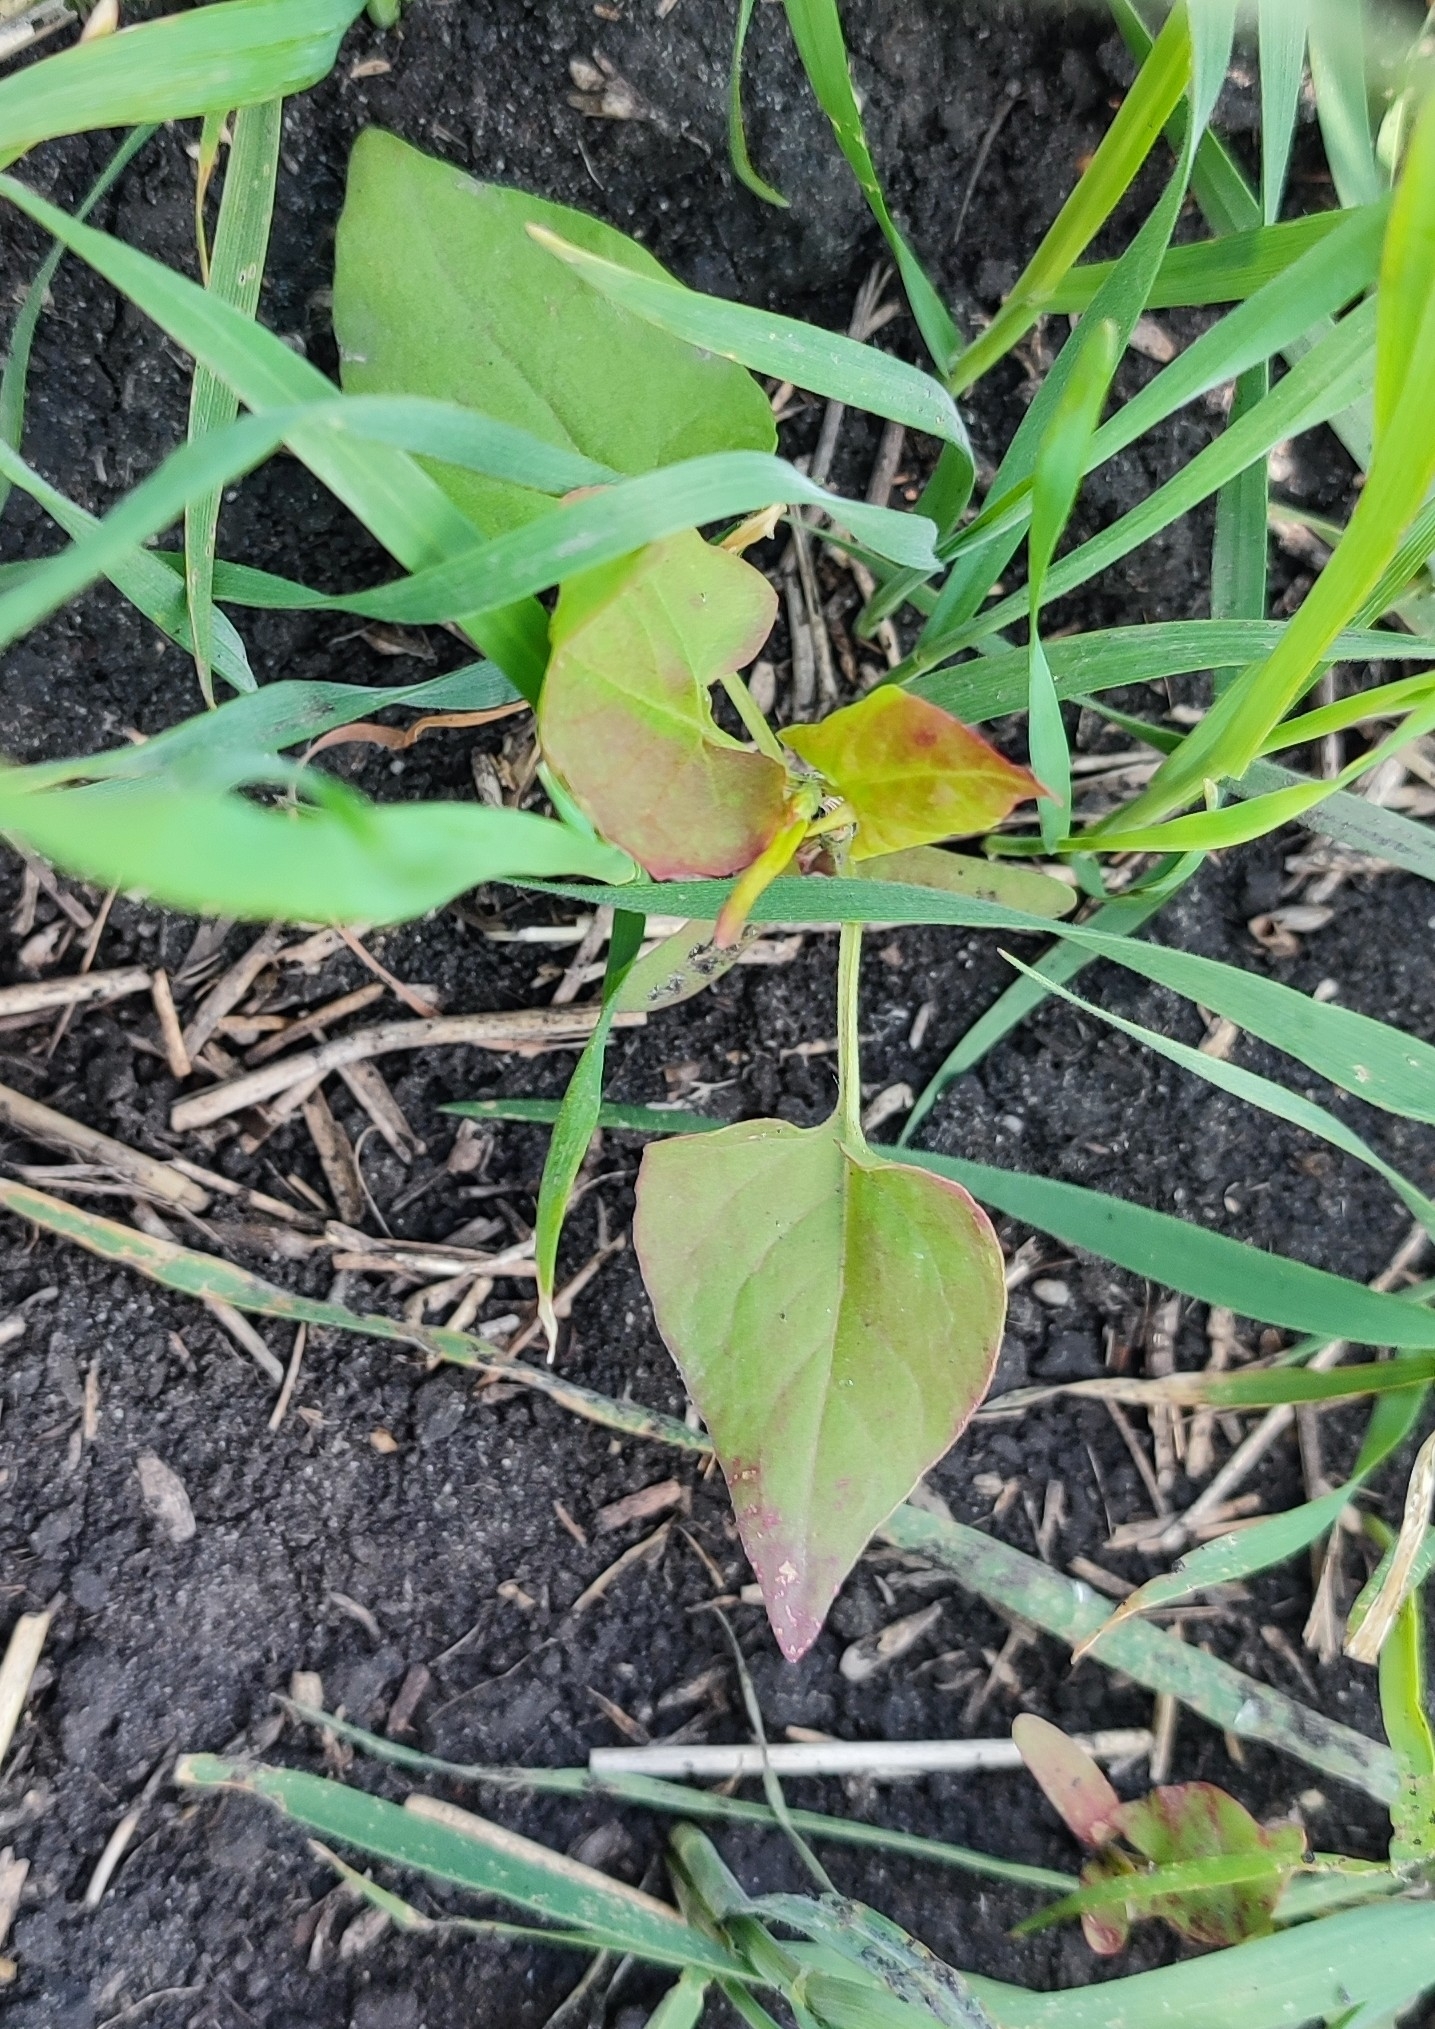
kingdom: Plantae
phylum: Tracheophyta
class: Magnoliopsida
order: Caryophyllales
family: Polygonaceae
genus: Fallopia
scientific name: Fallopia convolvulus
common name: Black bindweed
